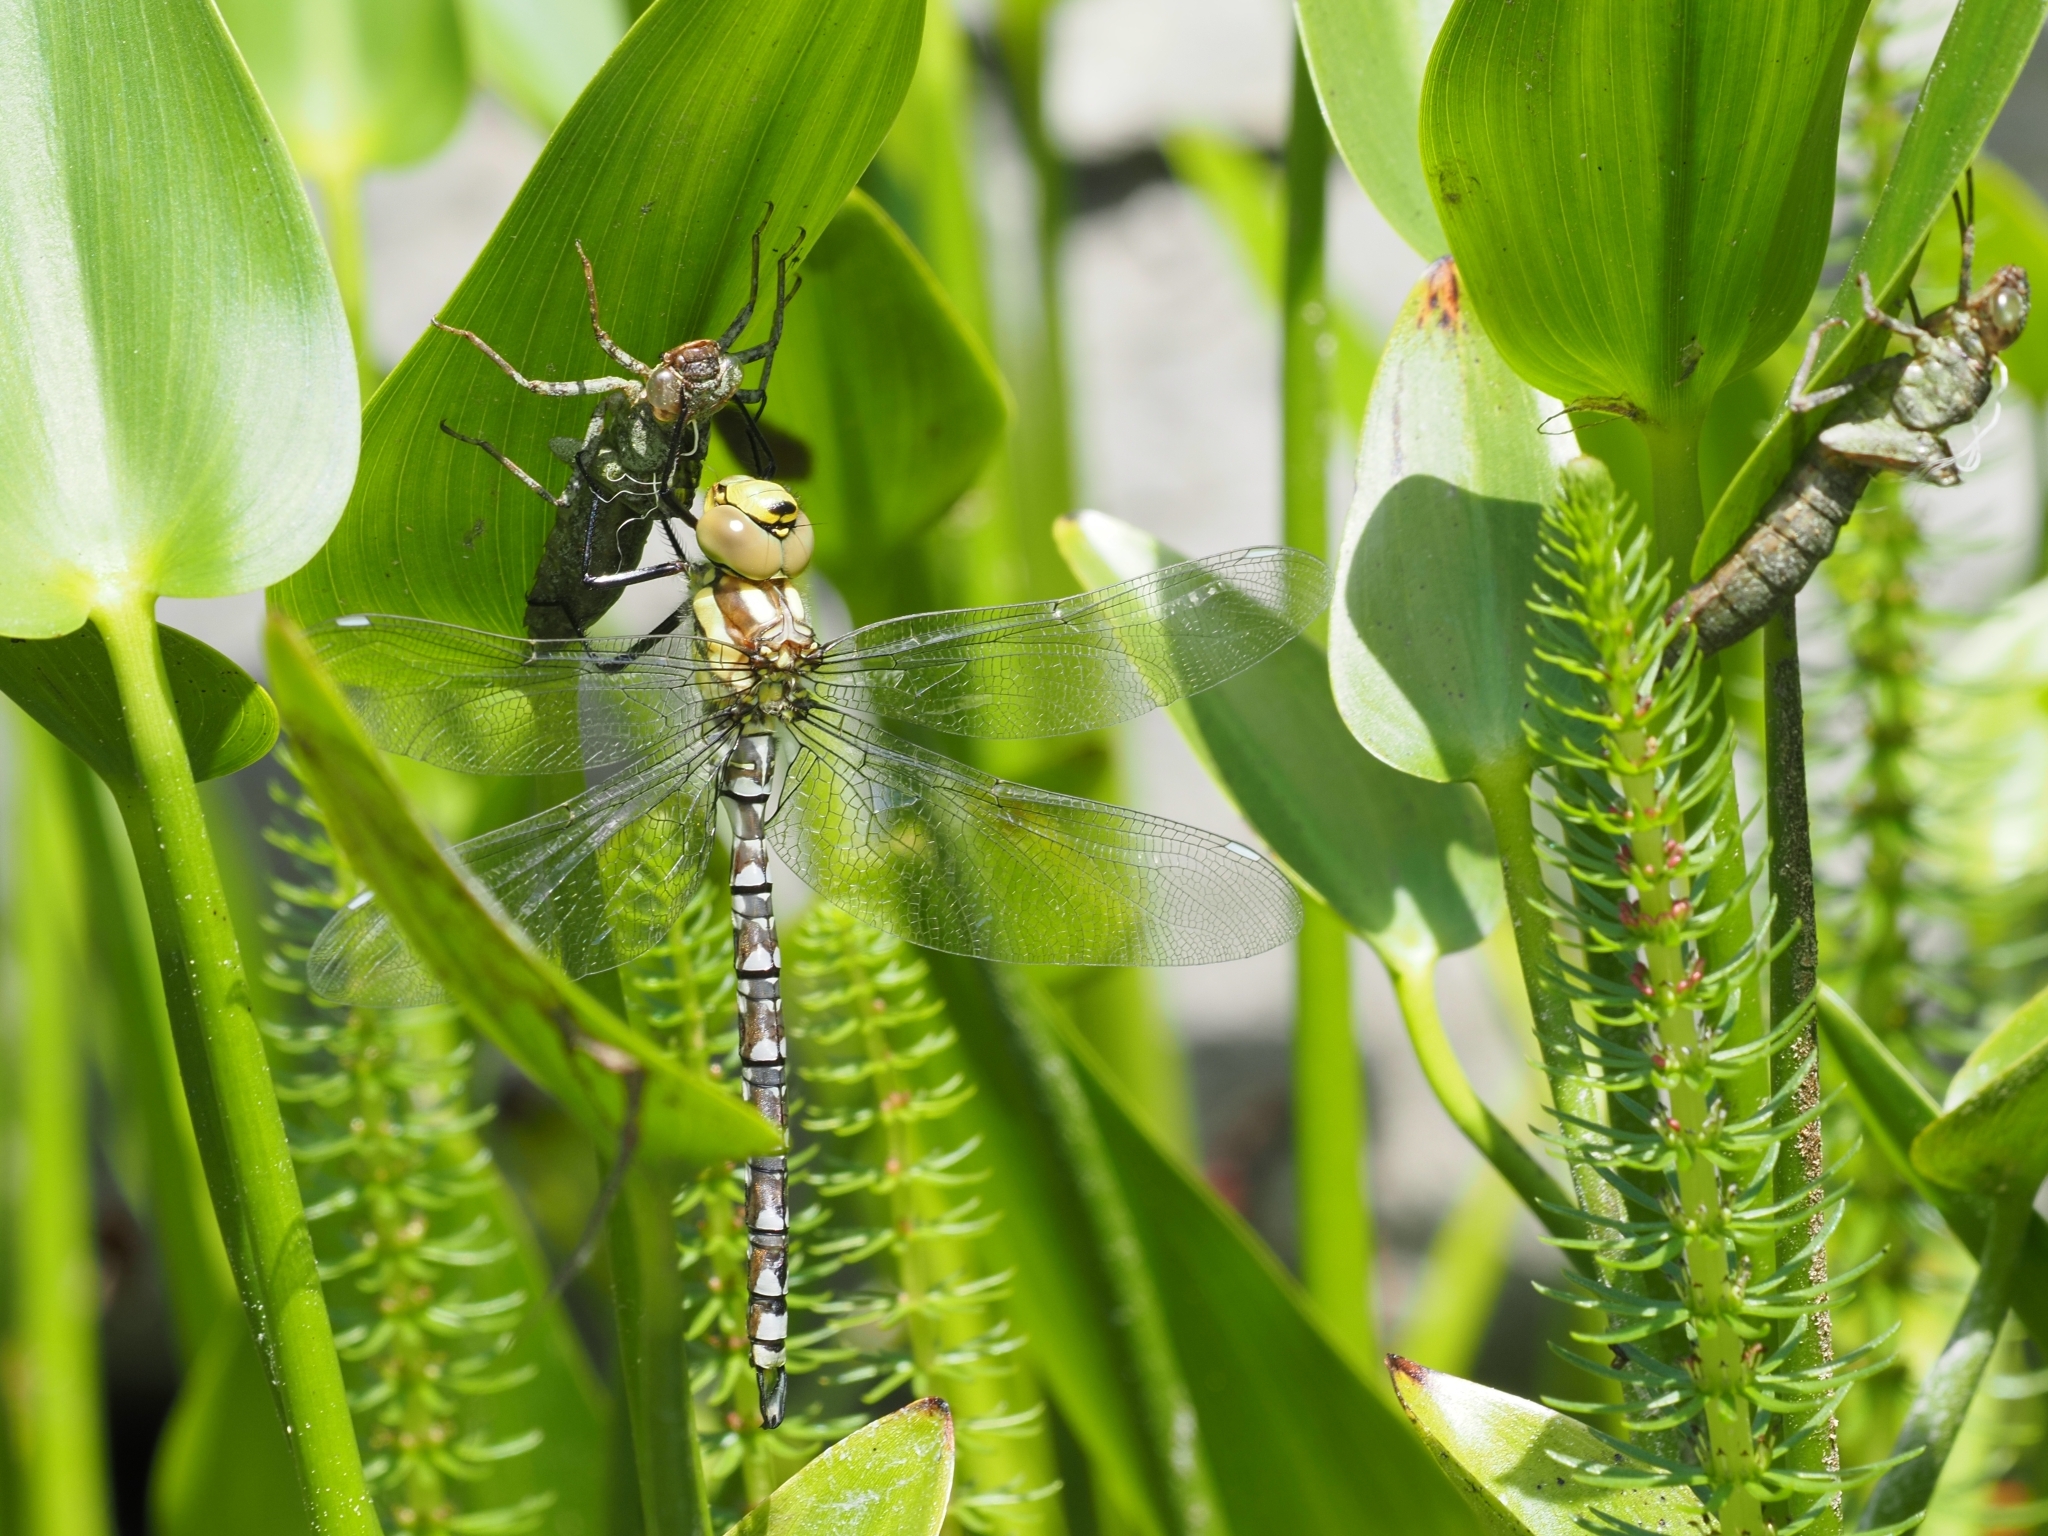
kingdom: Animalia
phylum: Arthropoda
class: Insecta
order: Odonata
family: Aeshnidae
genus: Aeshna
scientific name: Aeshna cyanea
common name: Southern hawker
